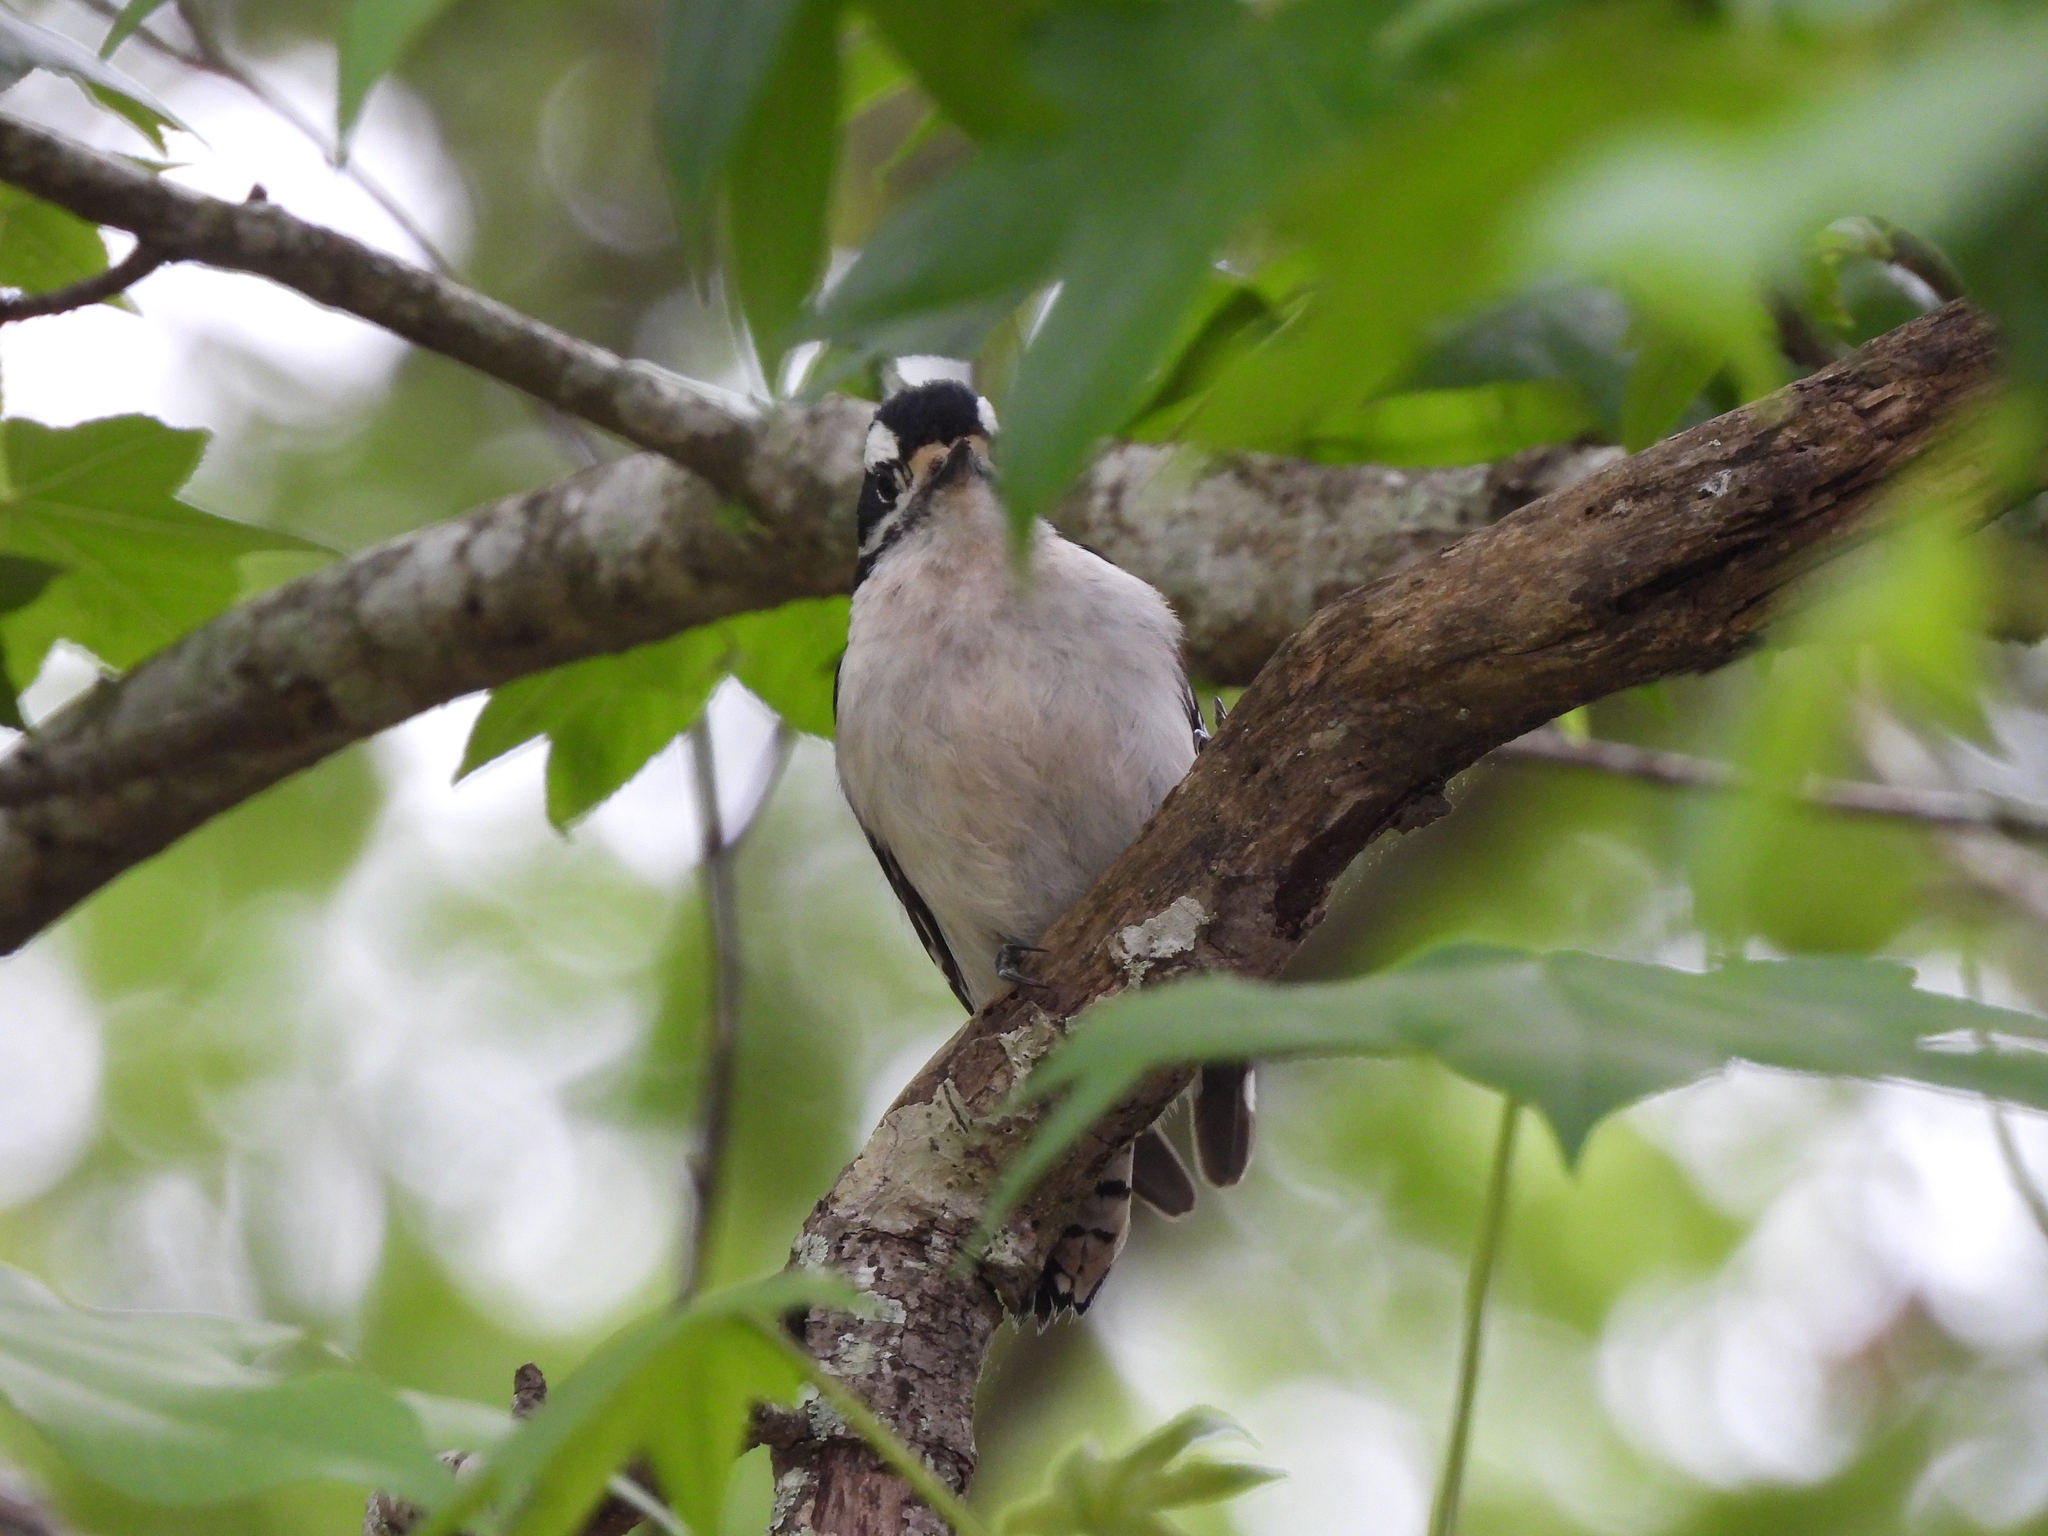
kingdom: Animalia
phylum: Chordata
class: Aves
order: Piciformes
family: Picidae
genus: Dryobates
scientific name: Dryobates pubescens
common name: Downy woodpecker
